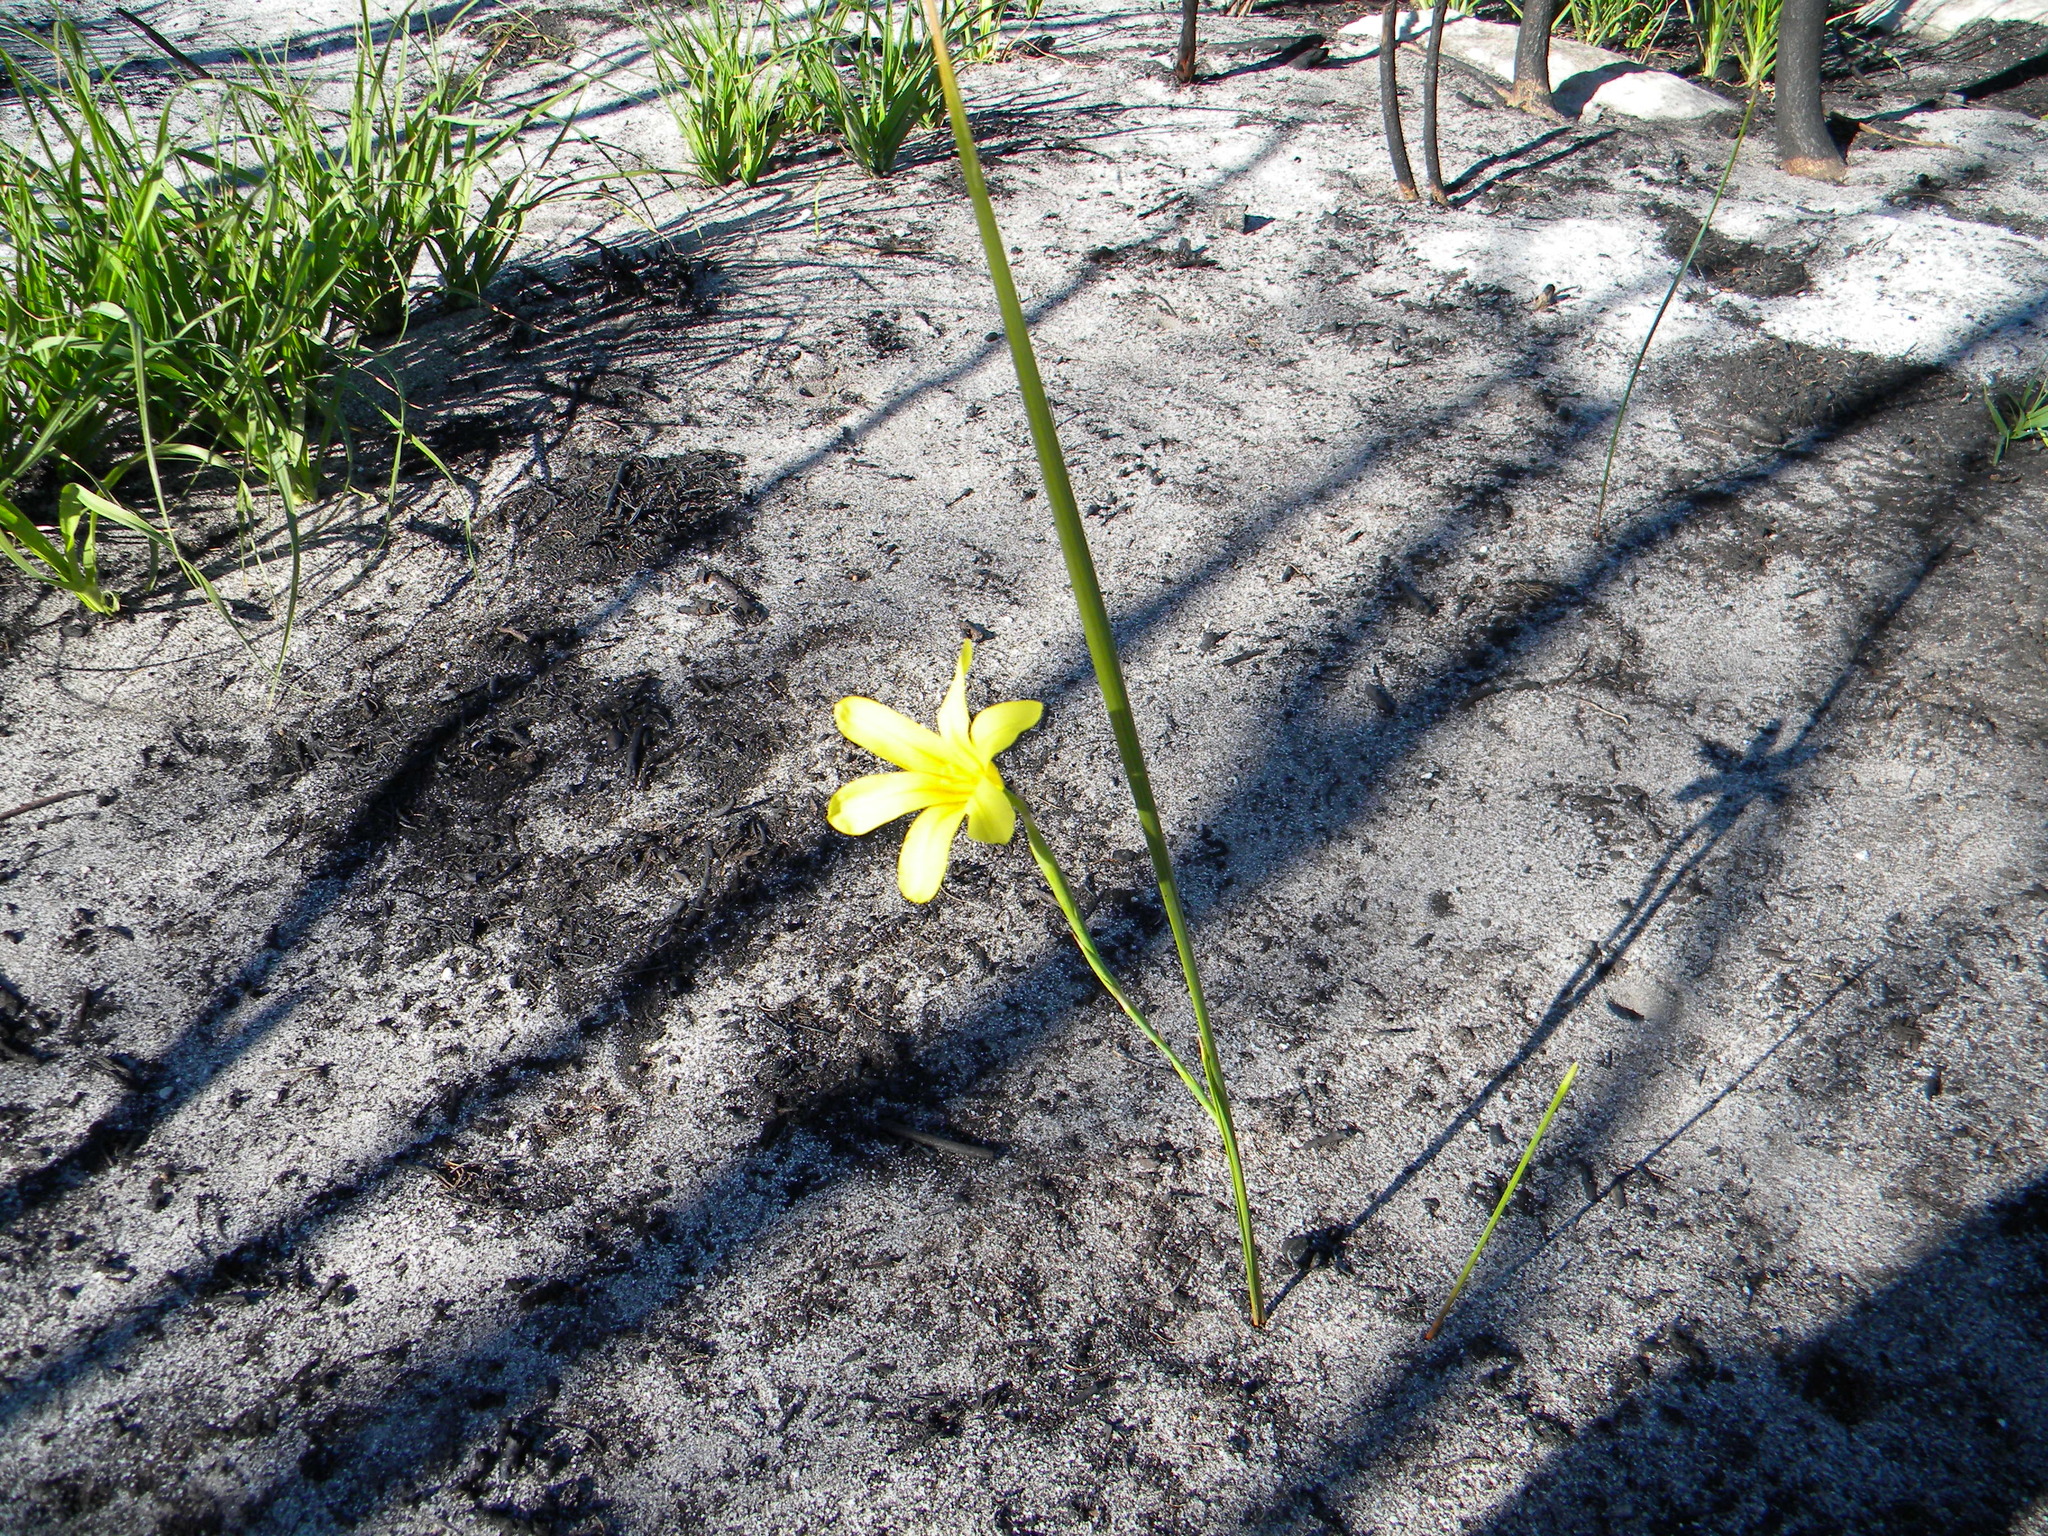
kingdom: Plantae
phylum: Tracheophyta
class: Liliopsida
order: Asparagales
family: Iridaceae
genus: Moraea
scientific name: Moraea ochroleuca
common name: Red tulp
